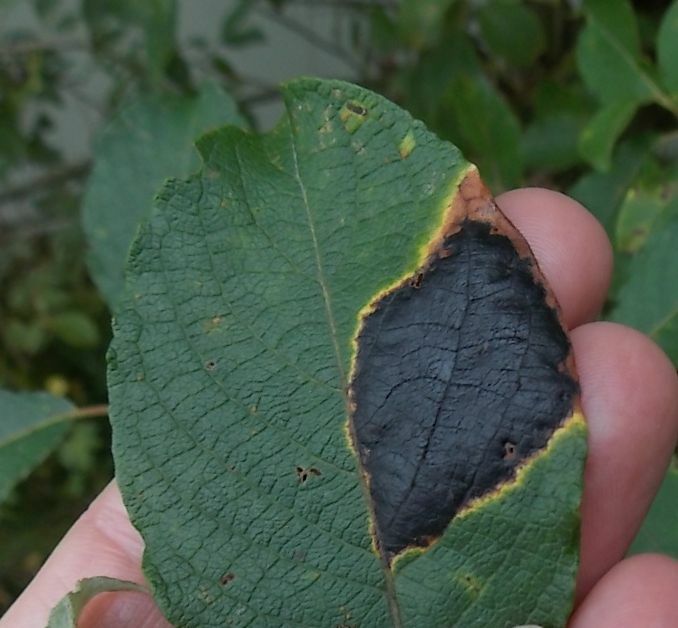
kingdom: Fungi
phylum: Ascomycota
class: Leotiomycetes
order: Rhytismatales
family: Rhytismataceae
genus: Rhytisma
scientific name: Rhytisma salicinum
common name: Willow tarspot
